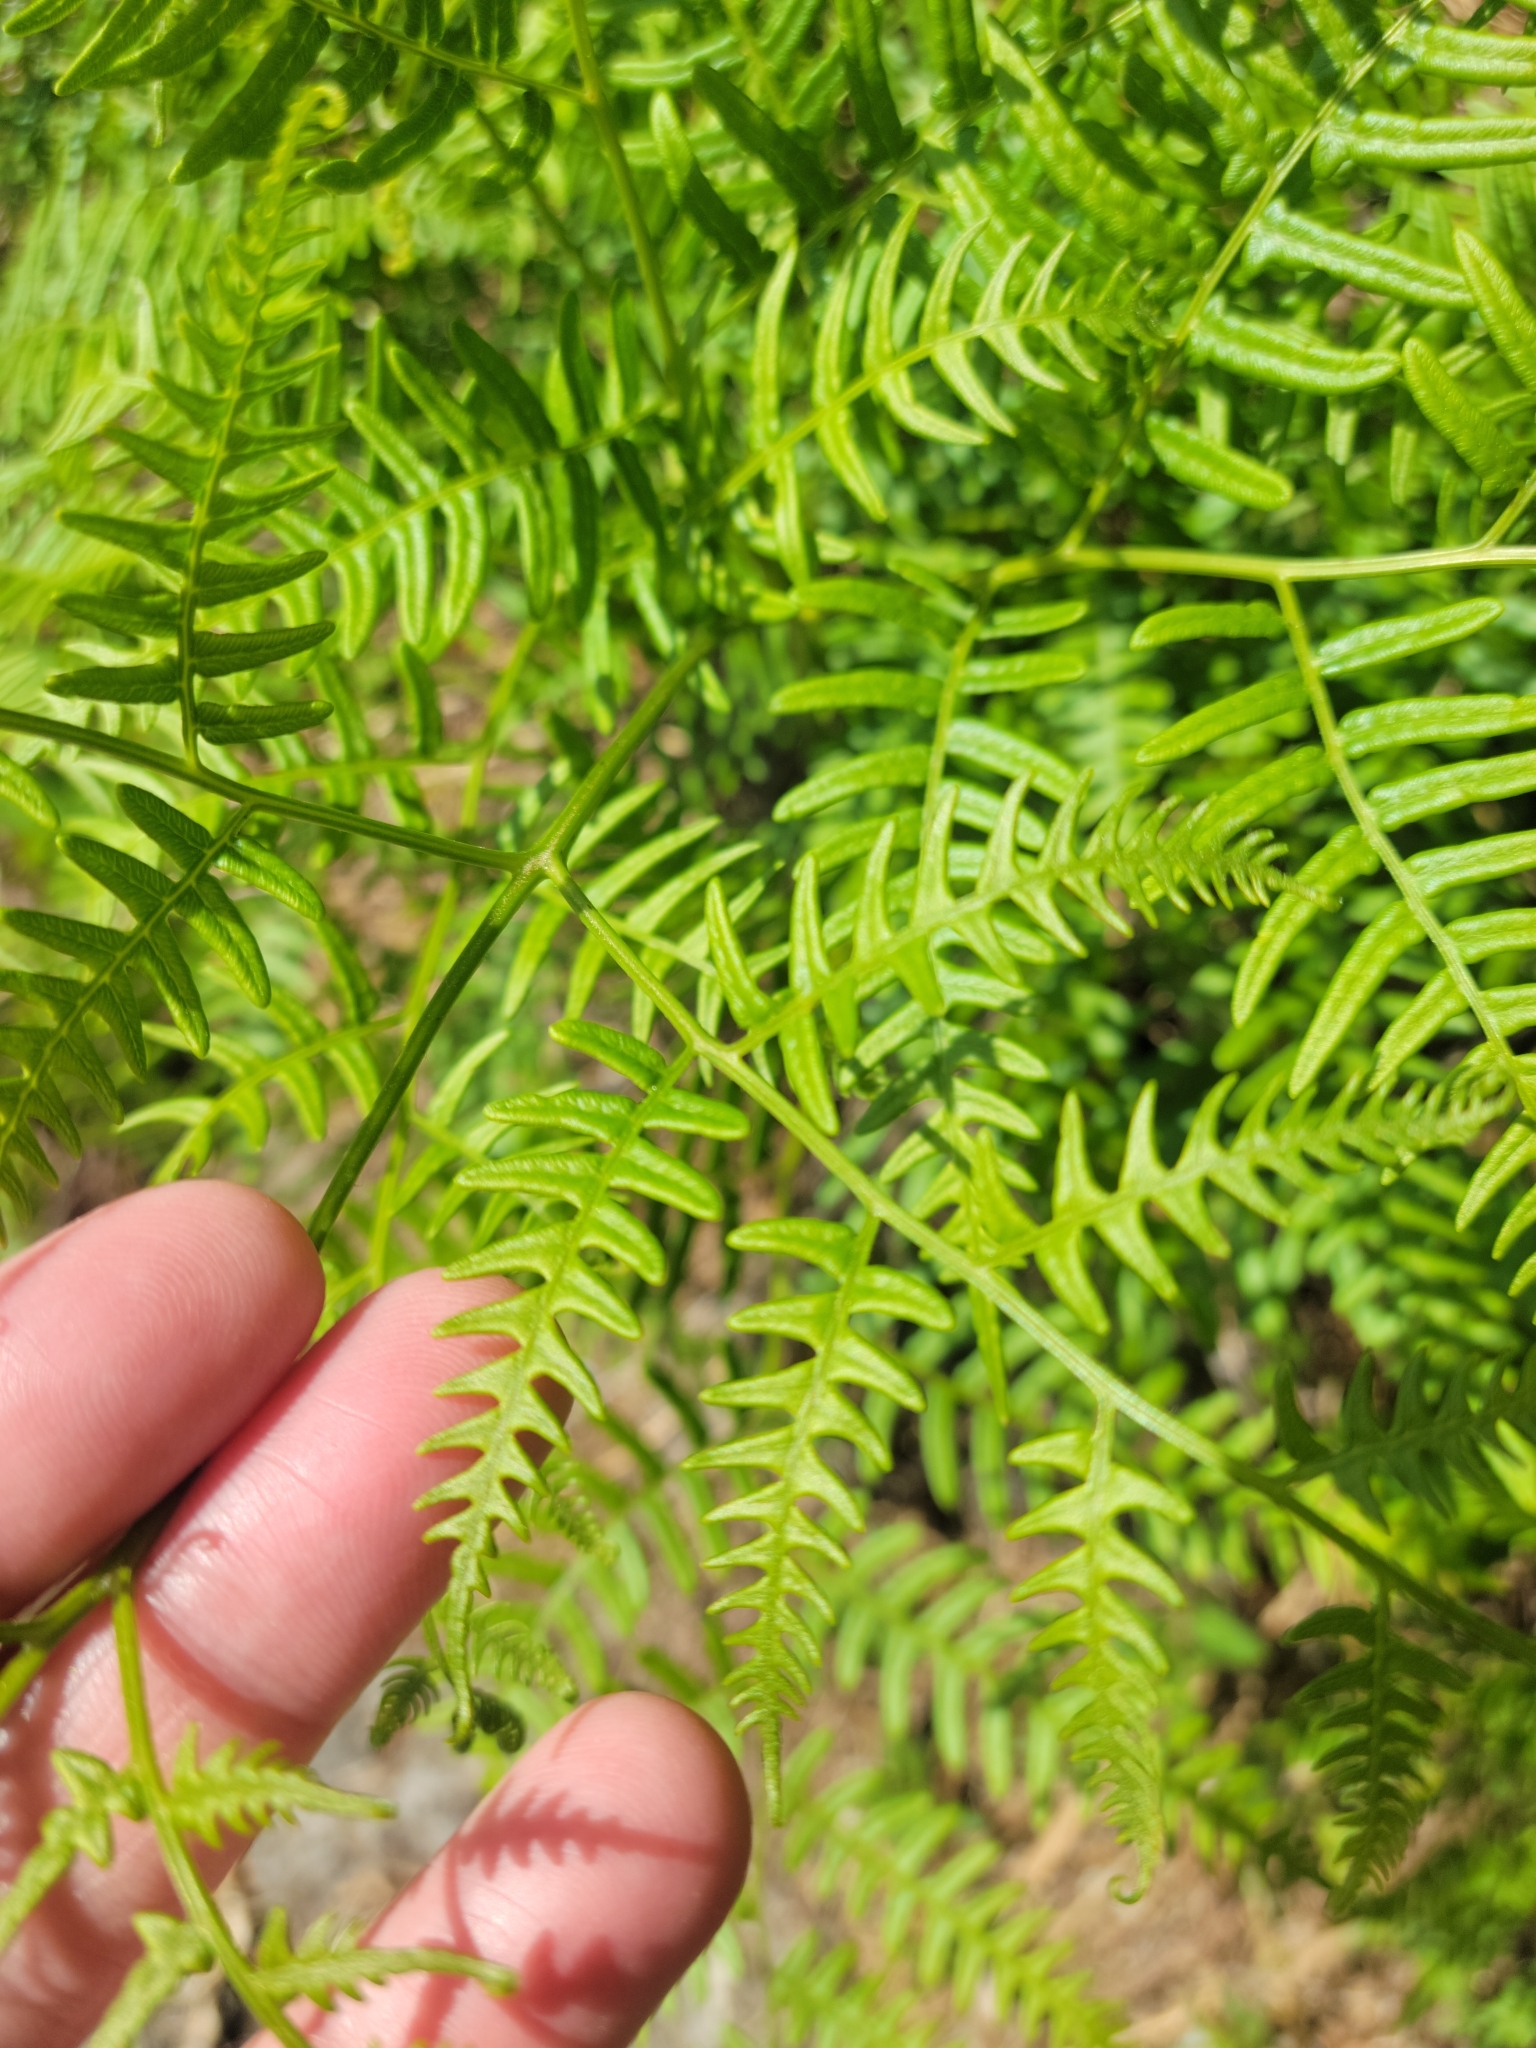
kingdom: Plantae
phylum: Tracheophyta
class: Polypodiopsida
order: Polypodiales
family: Dennstaedtiaceae
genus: Pteridium
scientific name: Pteridium
